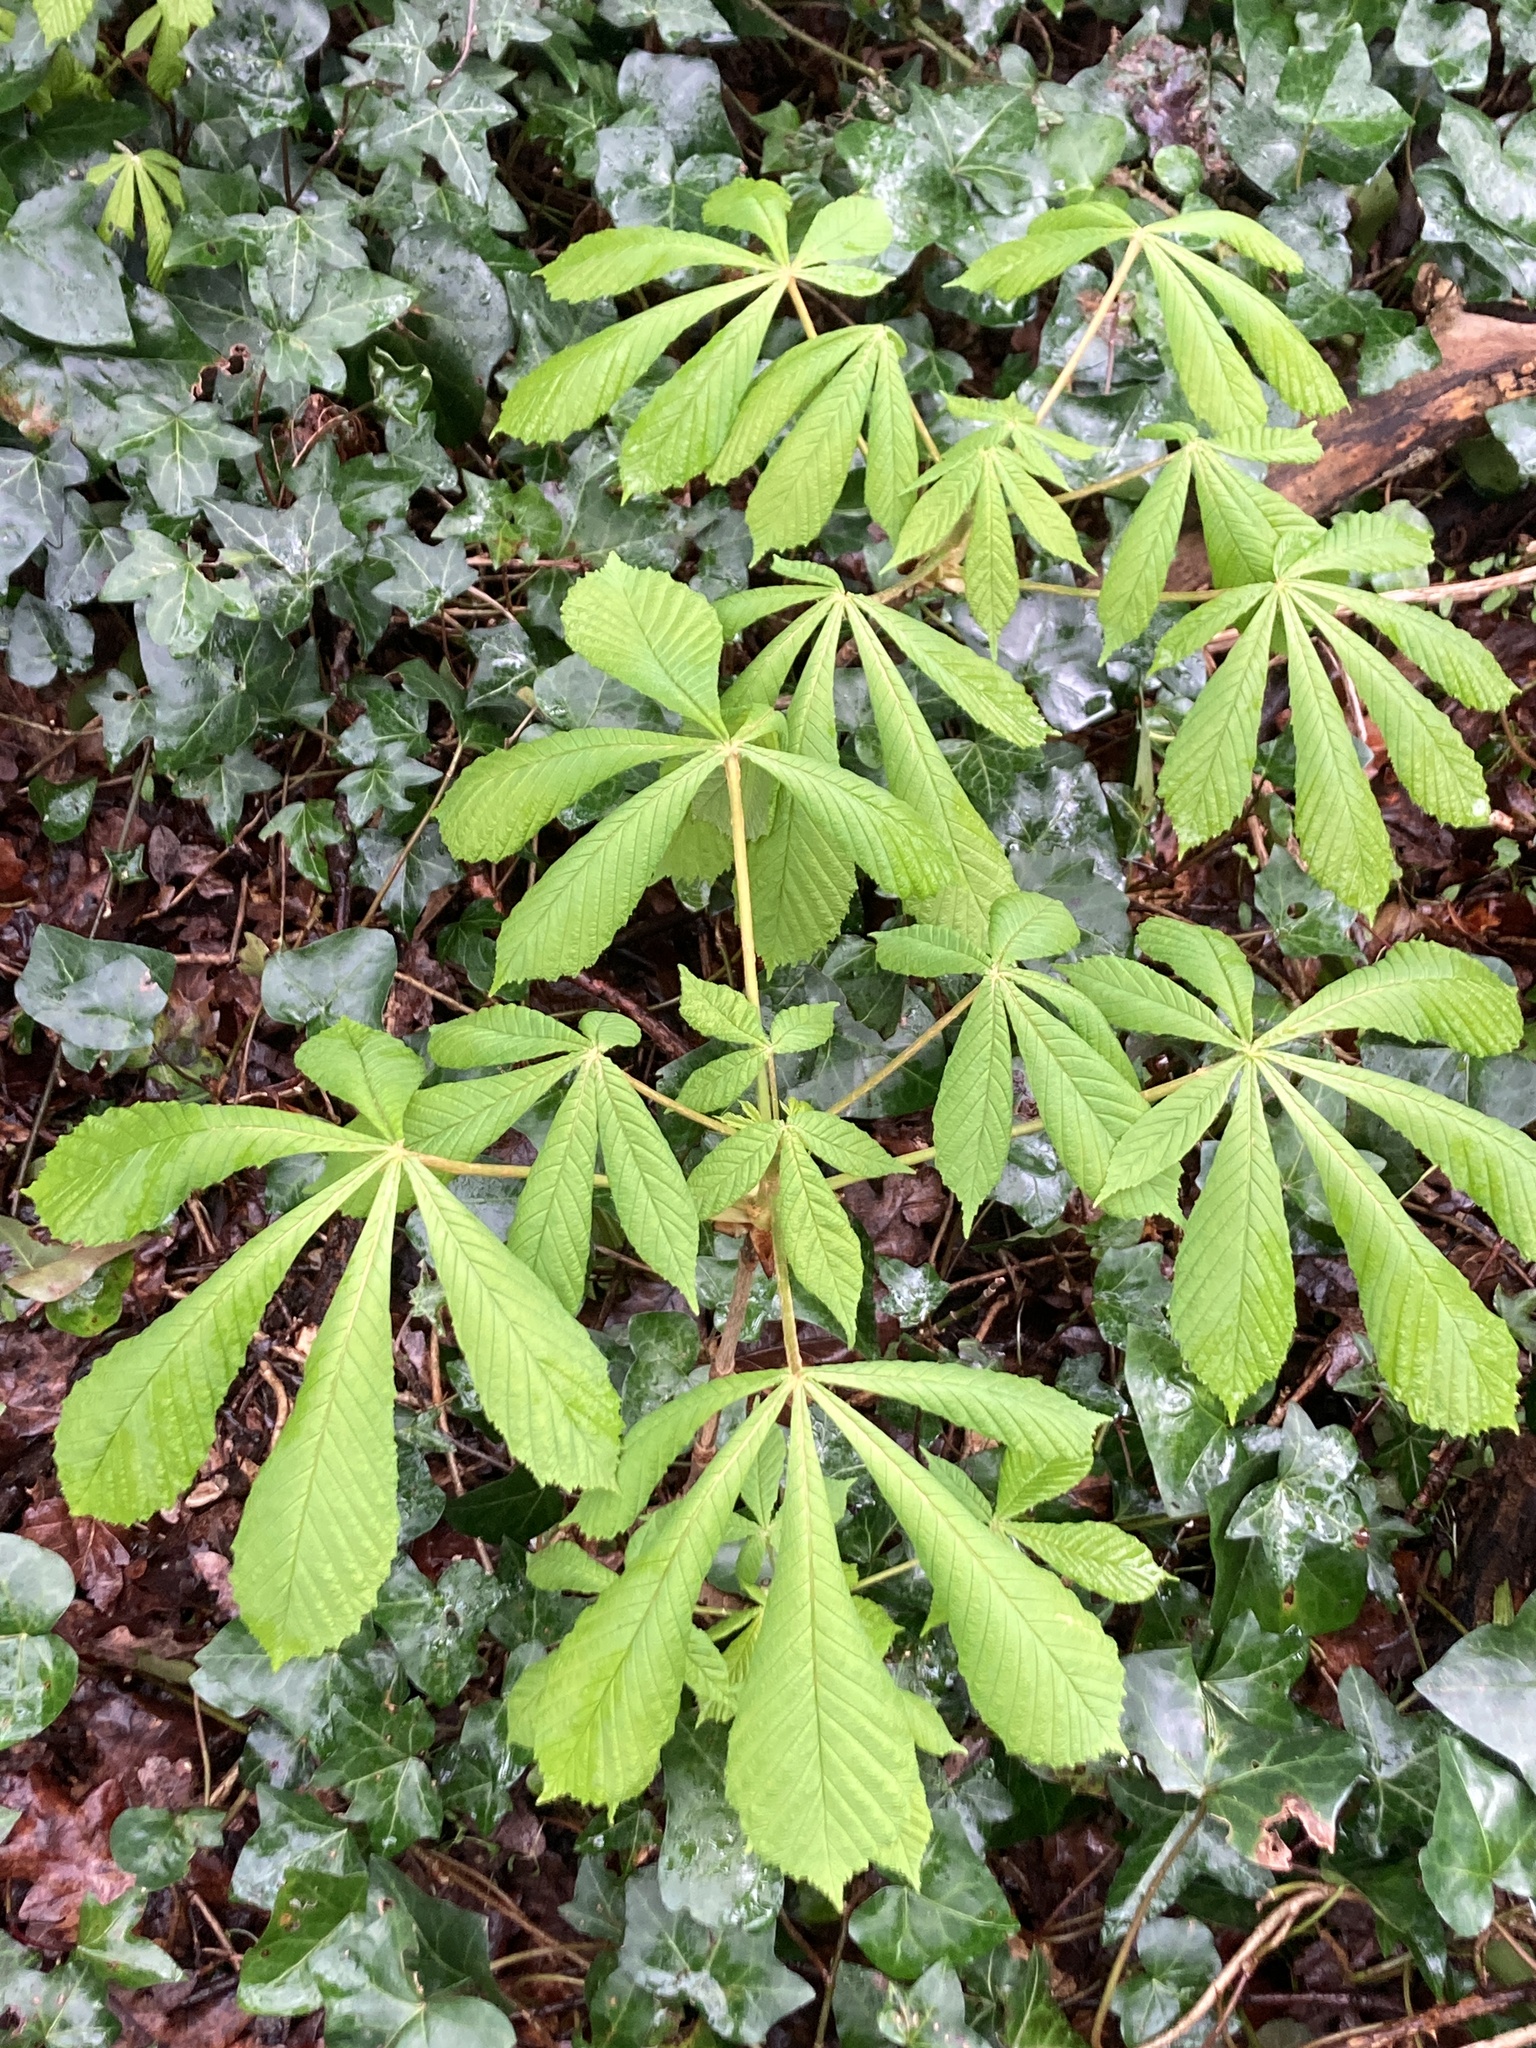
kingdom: Plantae
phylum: Tracheophyta
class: Magnoliopsida
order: Sapindales
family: Sapindaceae
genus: Aesculus
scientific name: Aesculus hippocastanum
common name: Horse-chestnut
